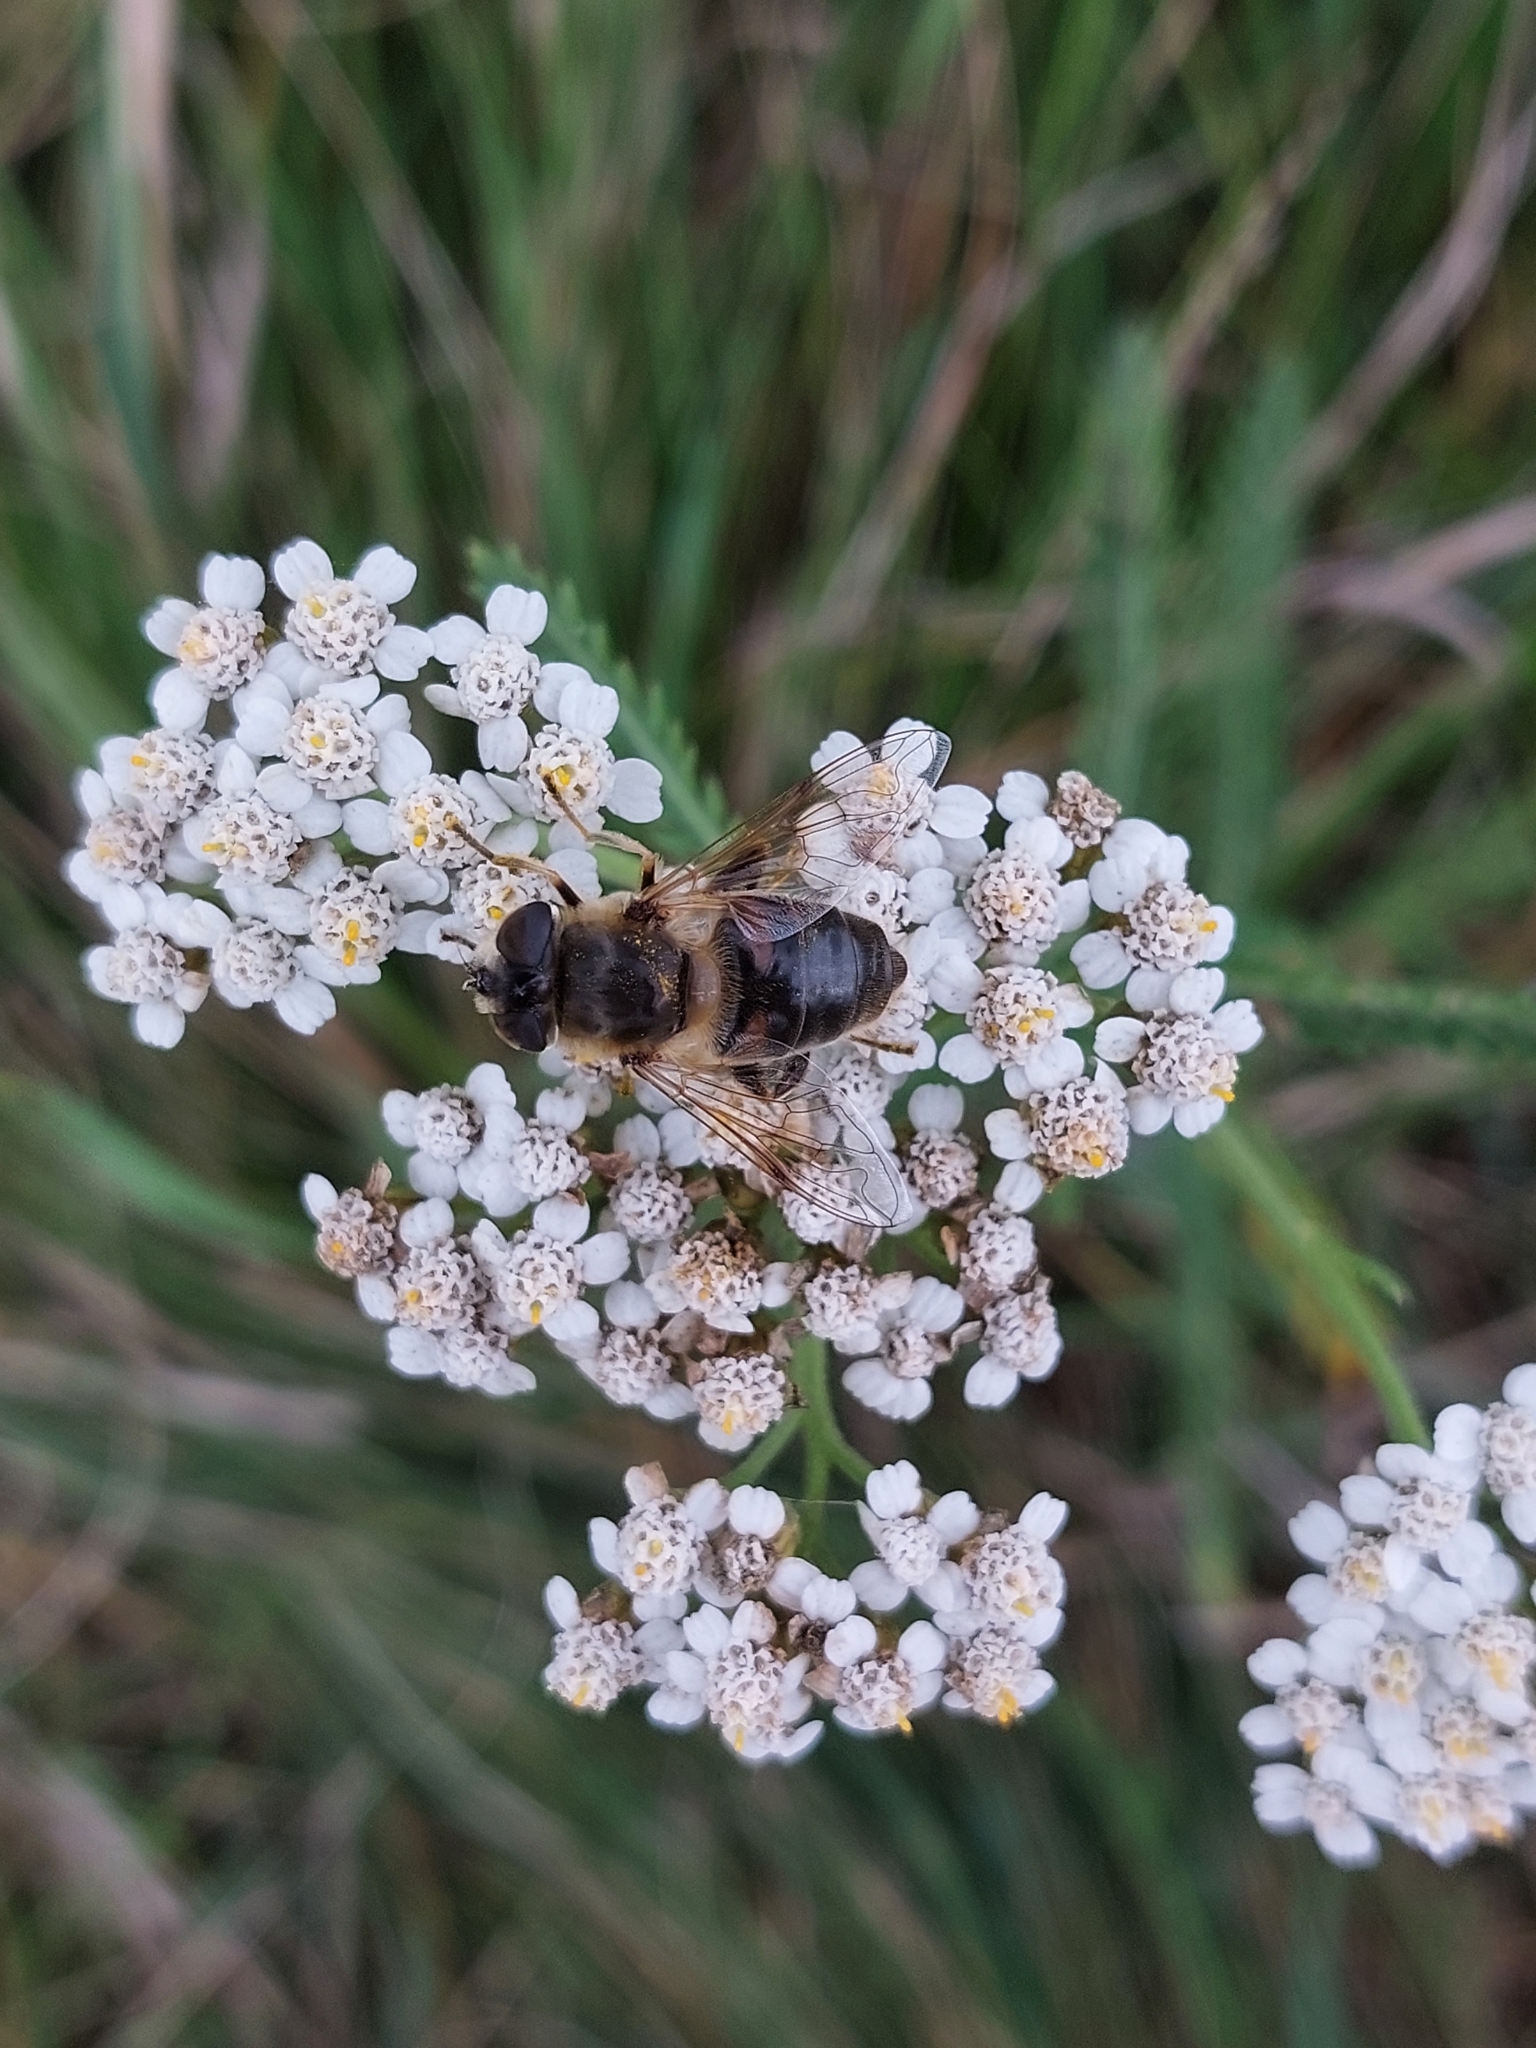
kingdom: Animalia
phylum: Arthropoda
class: Insecta
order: Diptera
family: Syrphidae
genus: Eristalis
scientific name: Eristalis tenax
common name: Drone fly
